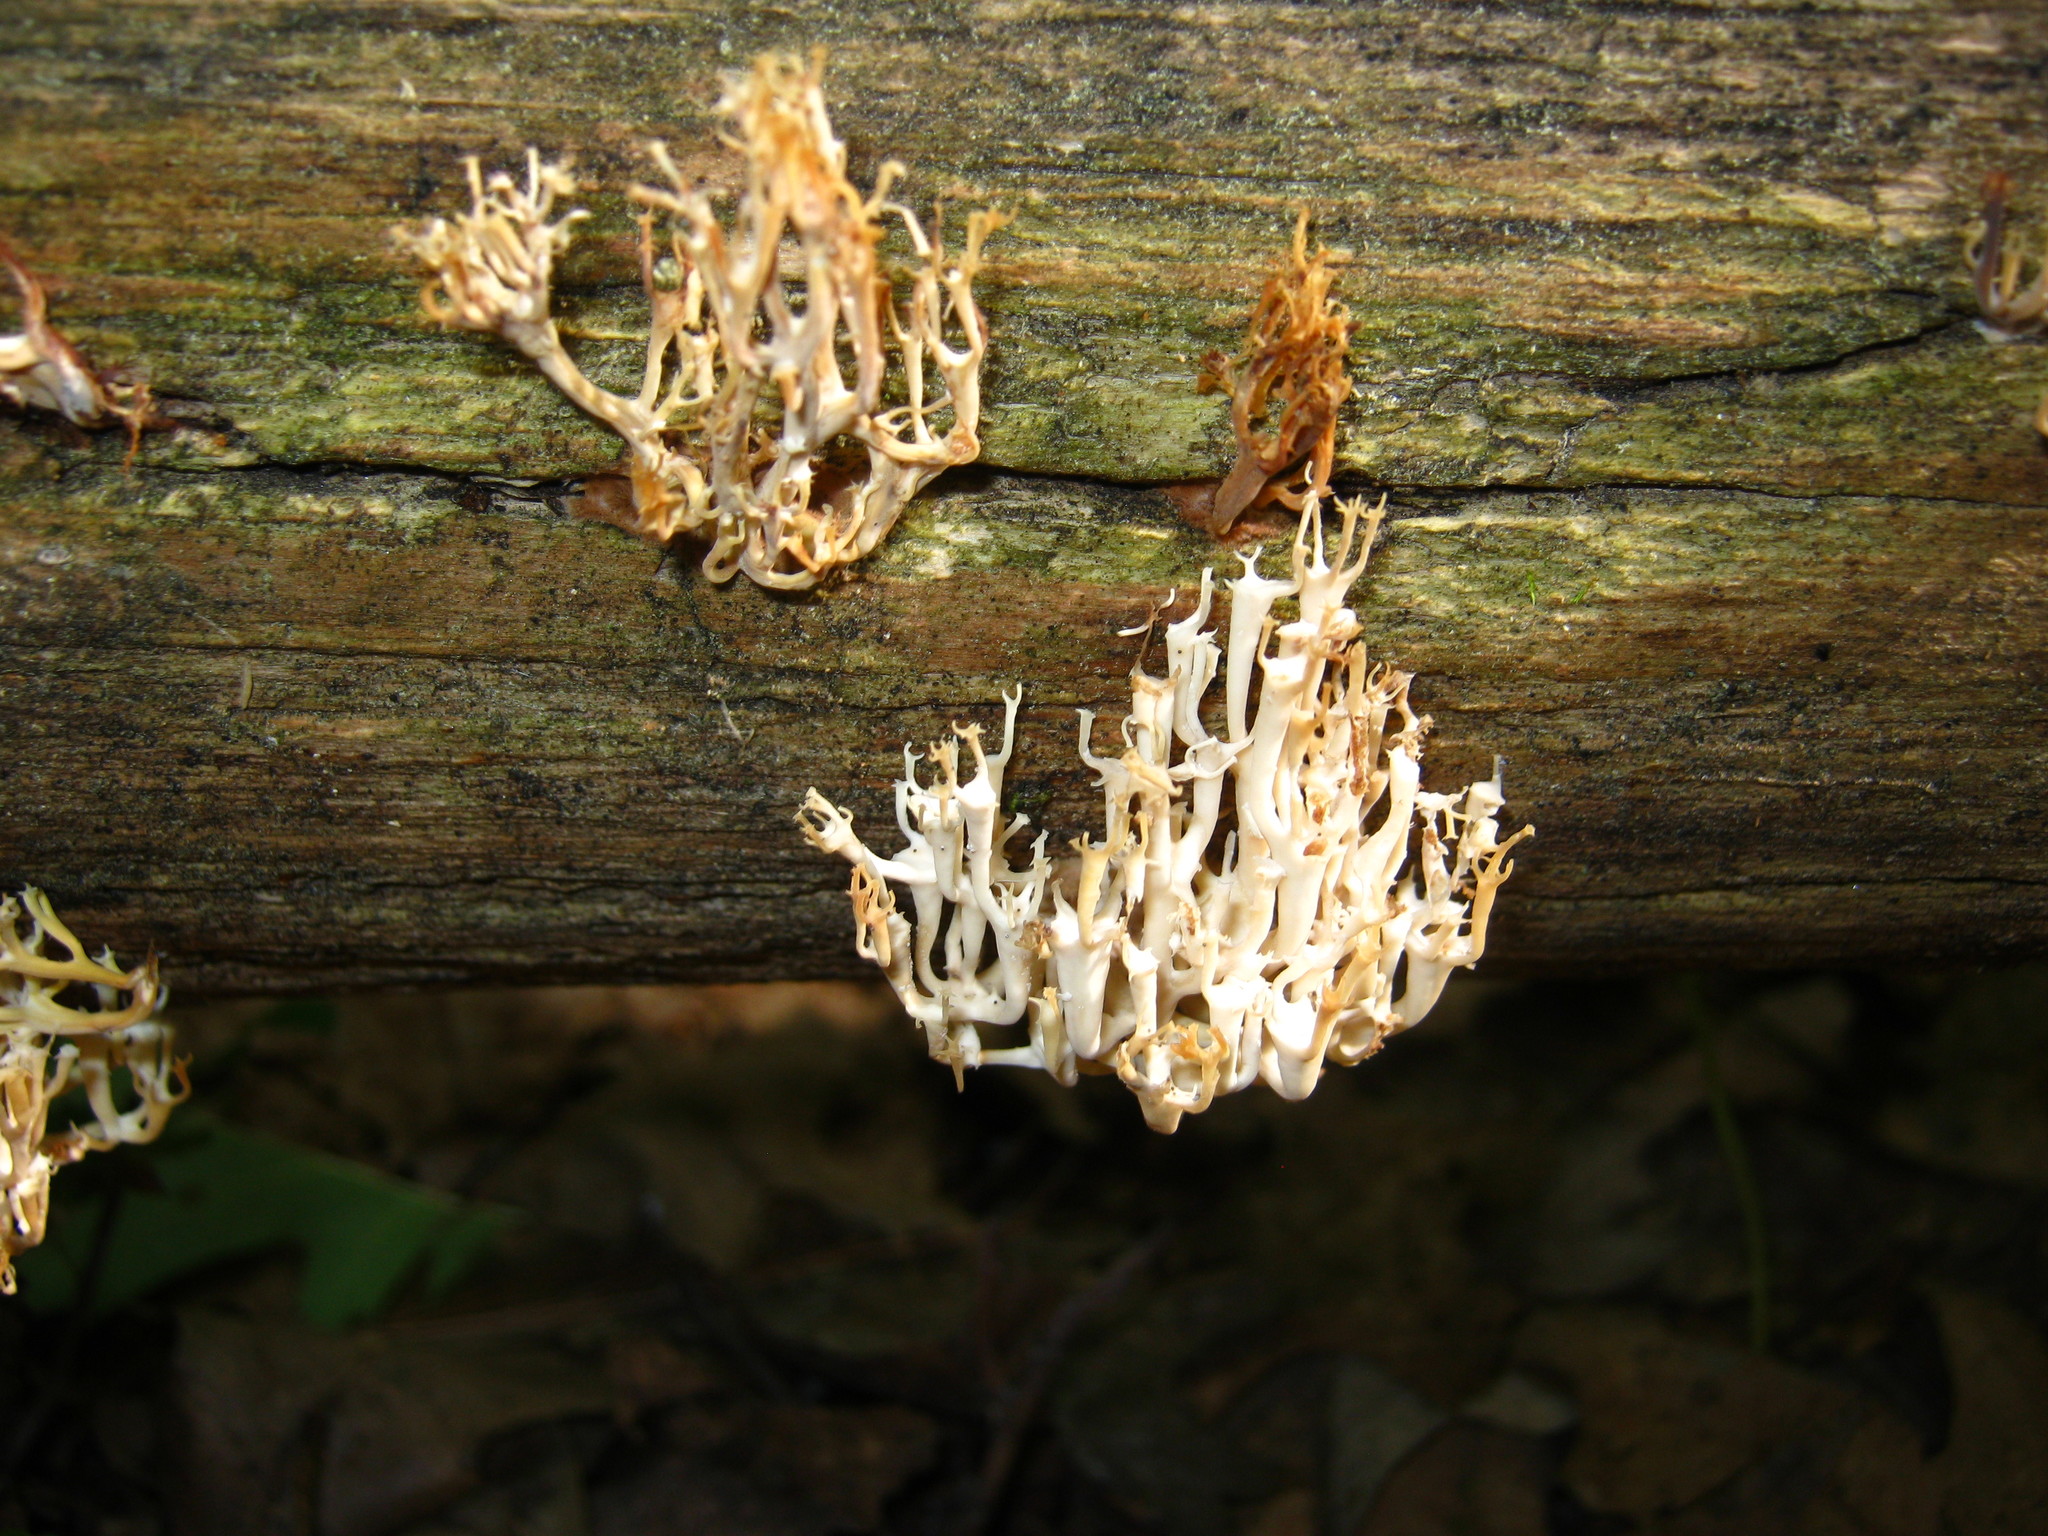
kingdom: Fungi
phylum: Basidiomycota
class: Agaricomycetes
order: Russulales
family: Auriscalpiaceae
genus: Artomyces
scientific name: Artomyces pyxidatus
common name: Crown-tipped coral fungus
